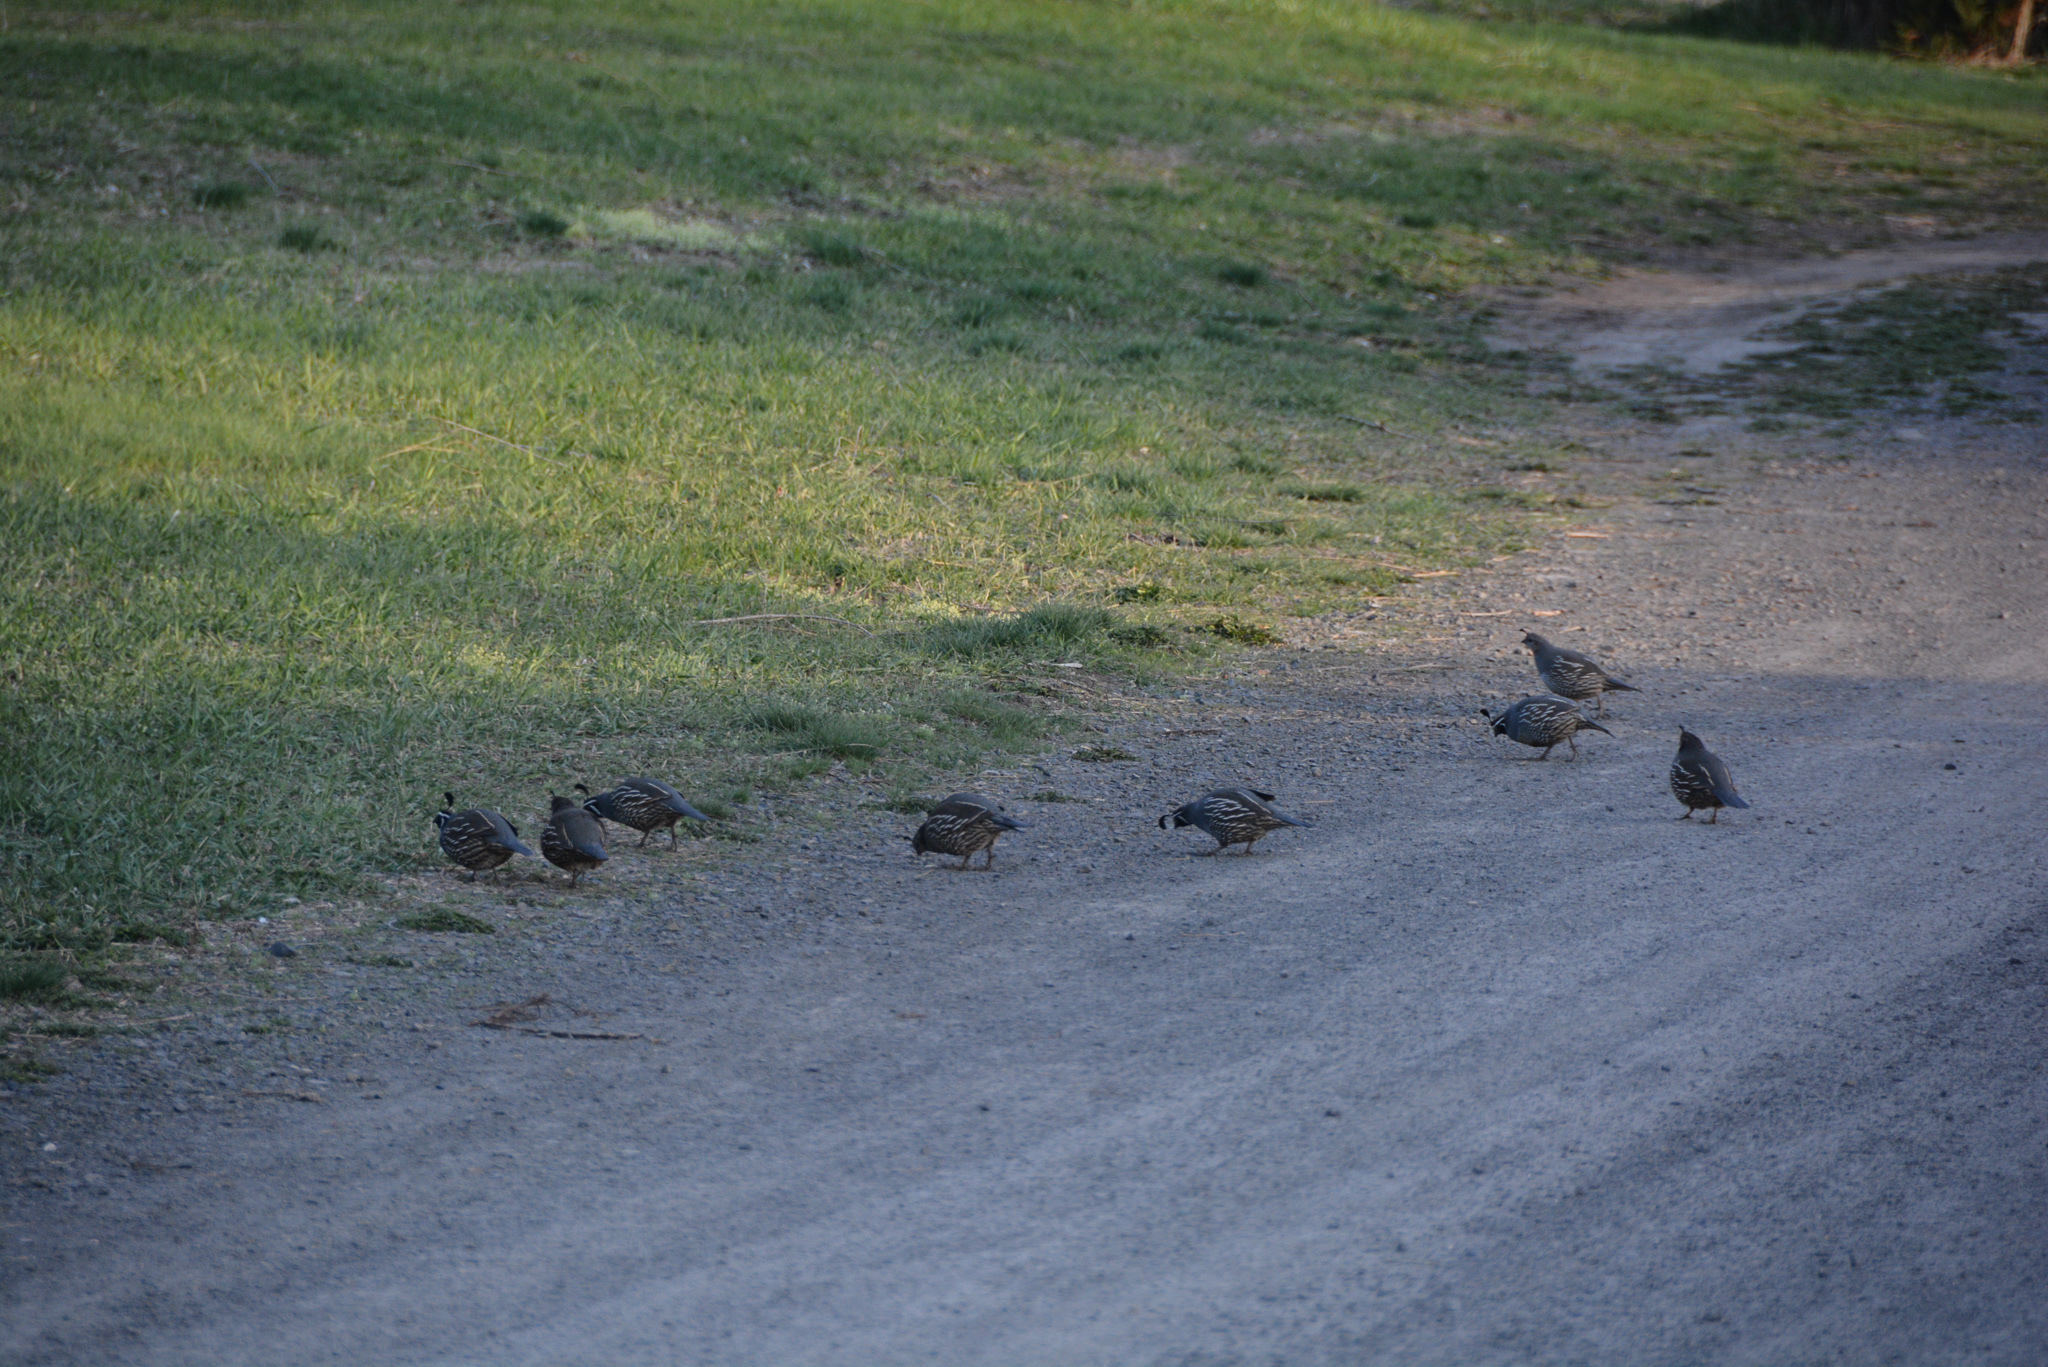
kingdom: Animalia
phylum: Chordata
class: Aves
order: Galliformes
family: Odontophoridae
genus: Callipepla
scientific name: Callipepla californica
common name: California quail
